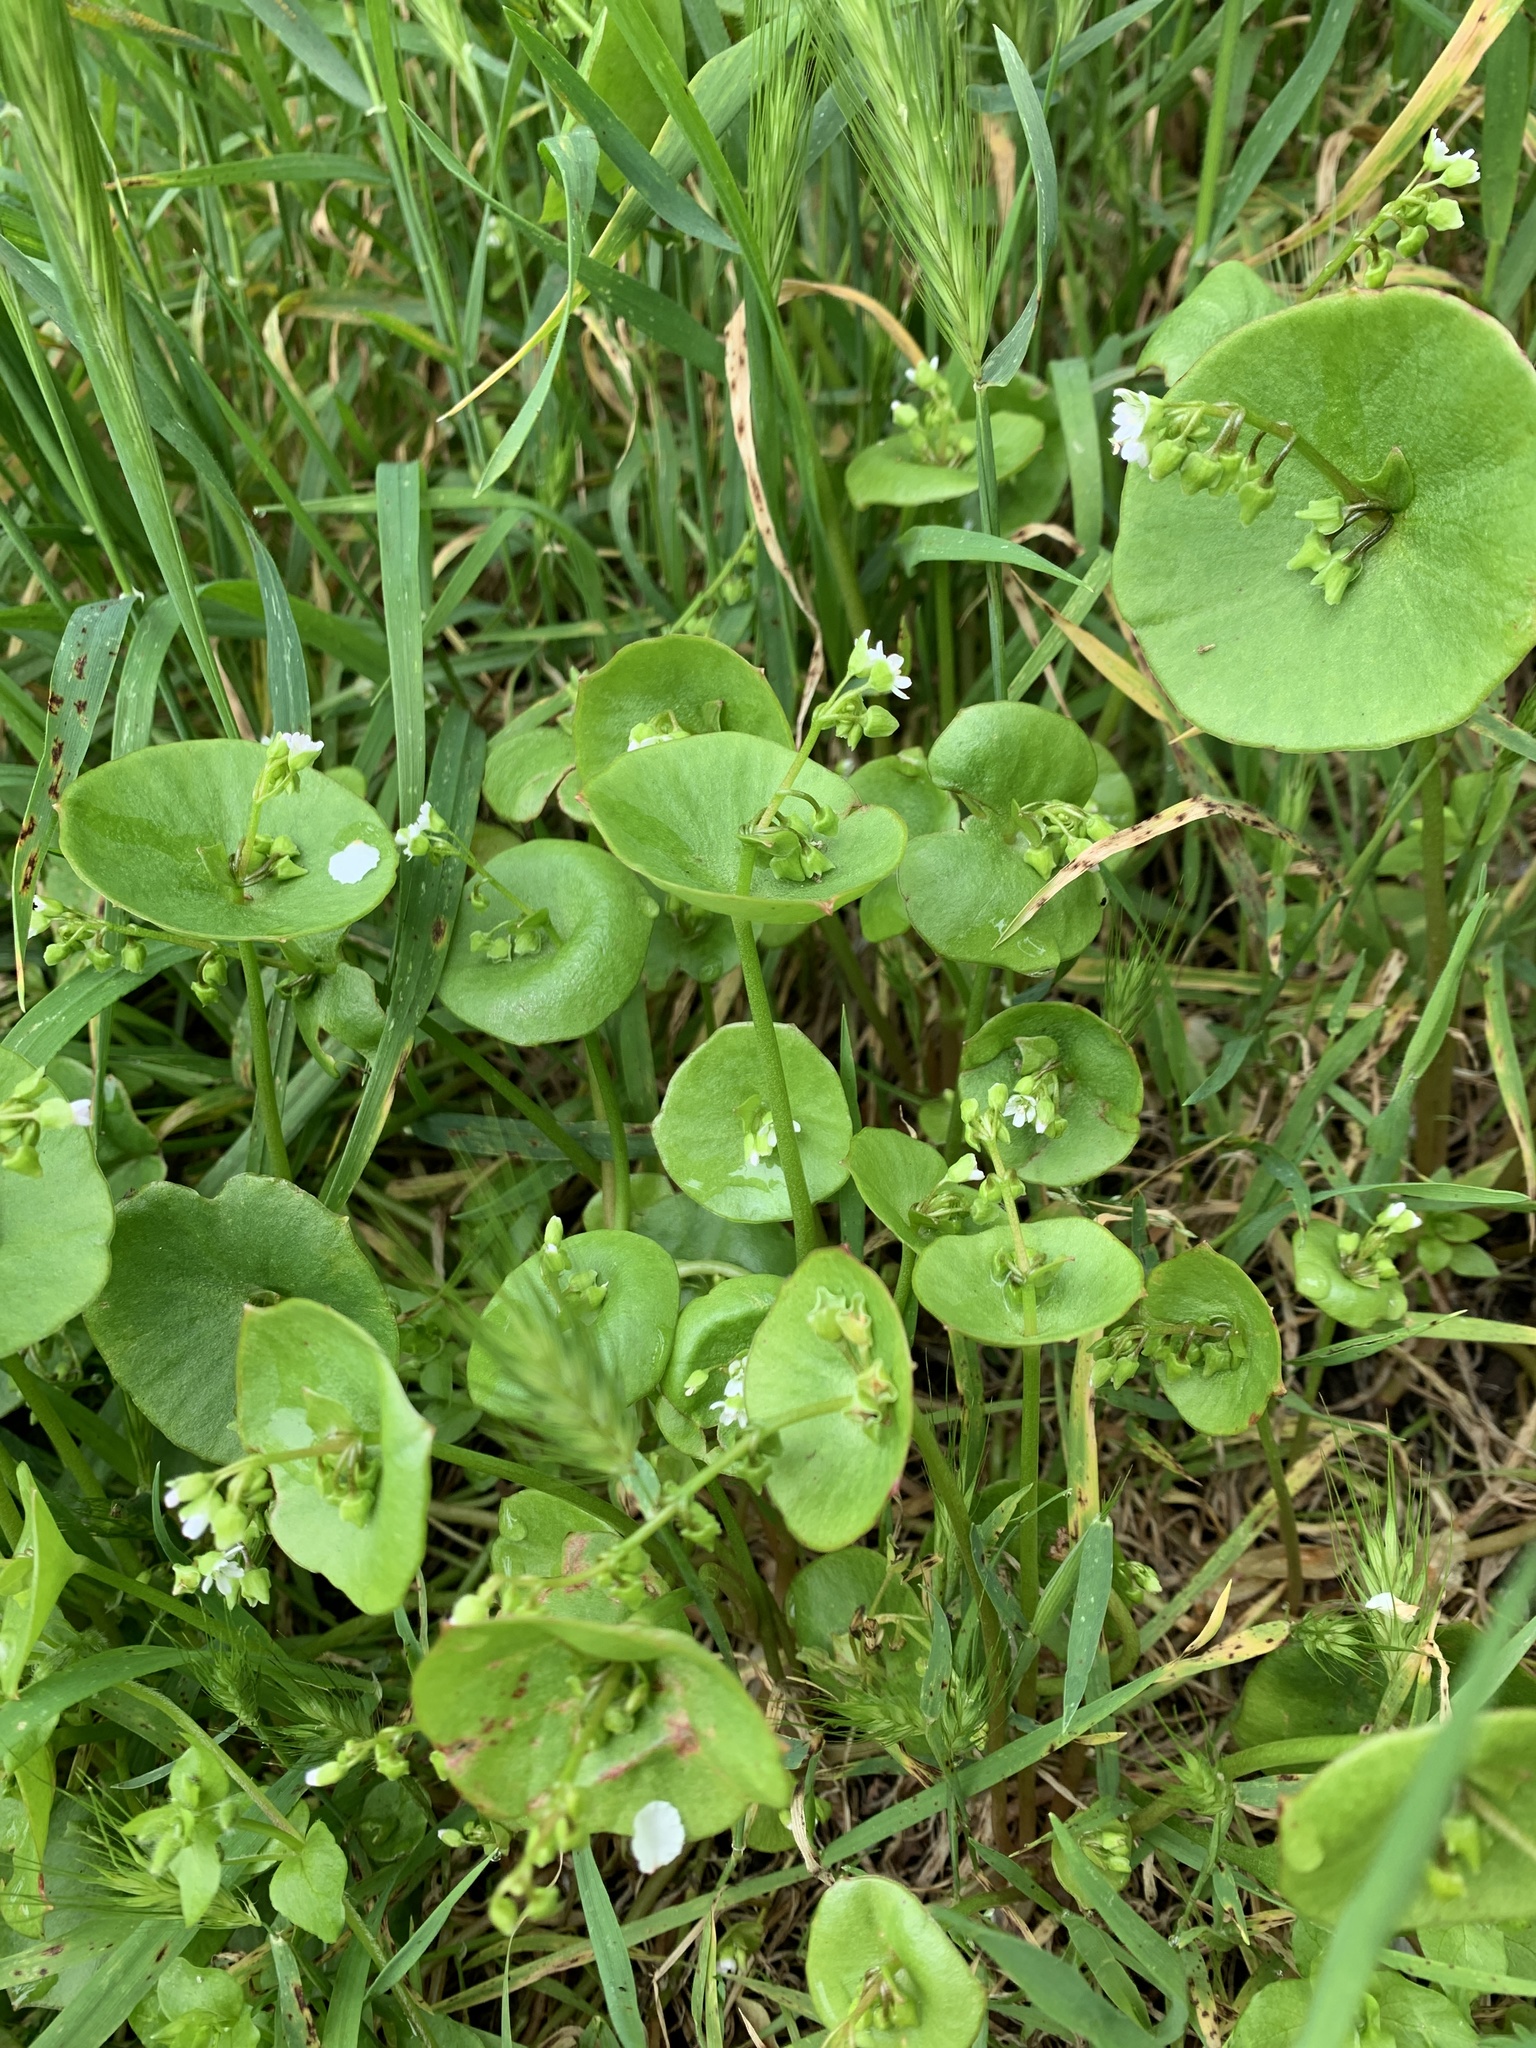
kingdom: Plantae
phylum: Tracheophyta
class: Magnoliopsida
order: Caryophyllales
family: Montiaceae
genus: Claytonia
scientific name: Claytonia perfoliata
